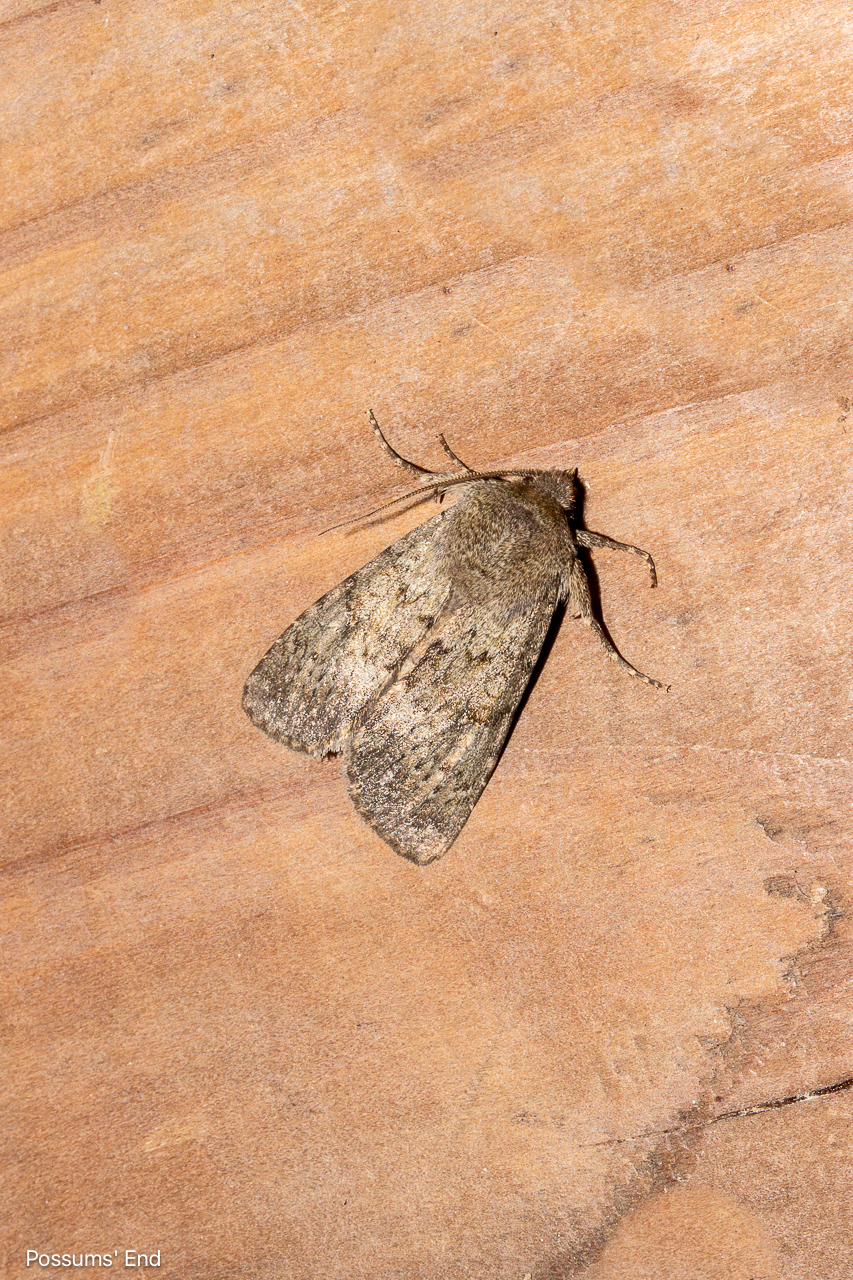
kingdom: Animalia
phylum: Arthropoda
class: Insecta
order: Lepidoptera
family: Noctuidae
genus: Ichneutica
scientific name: Ichneutica moderata
